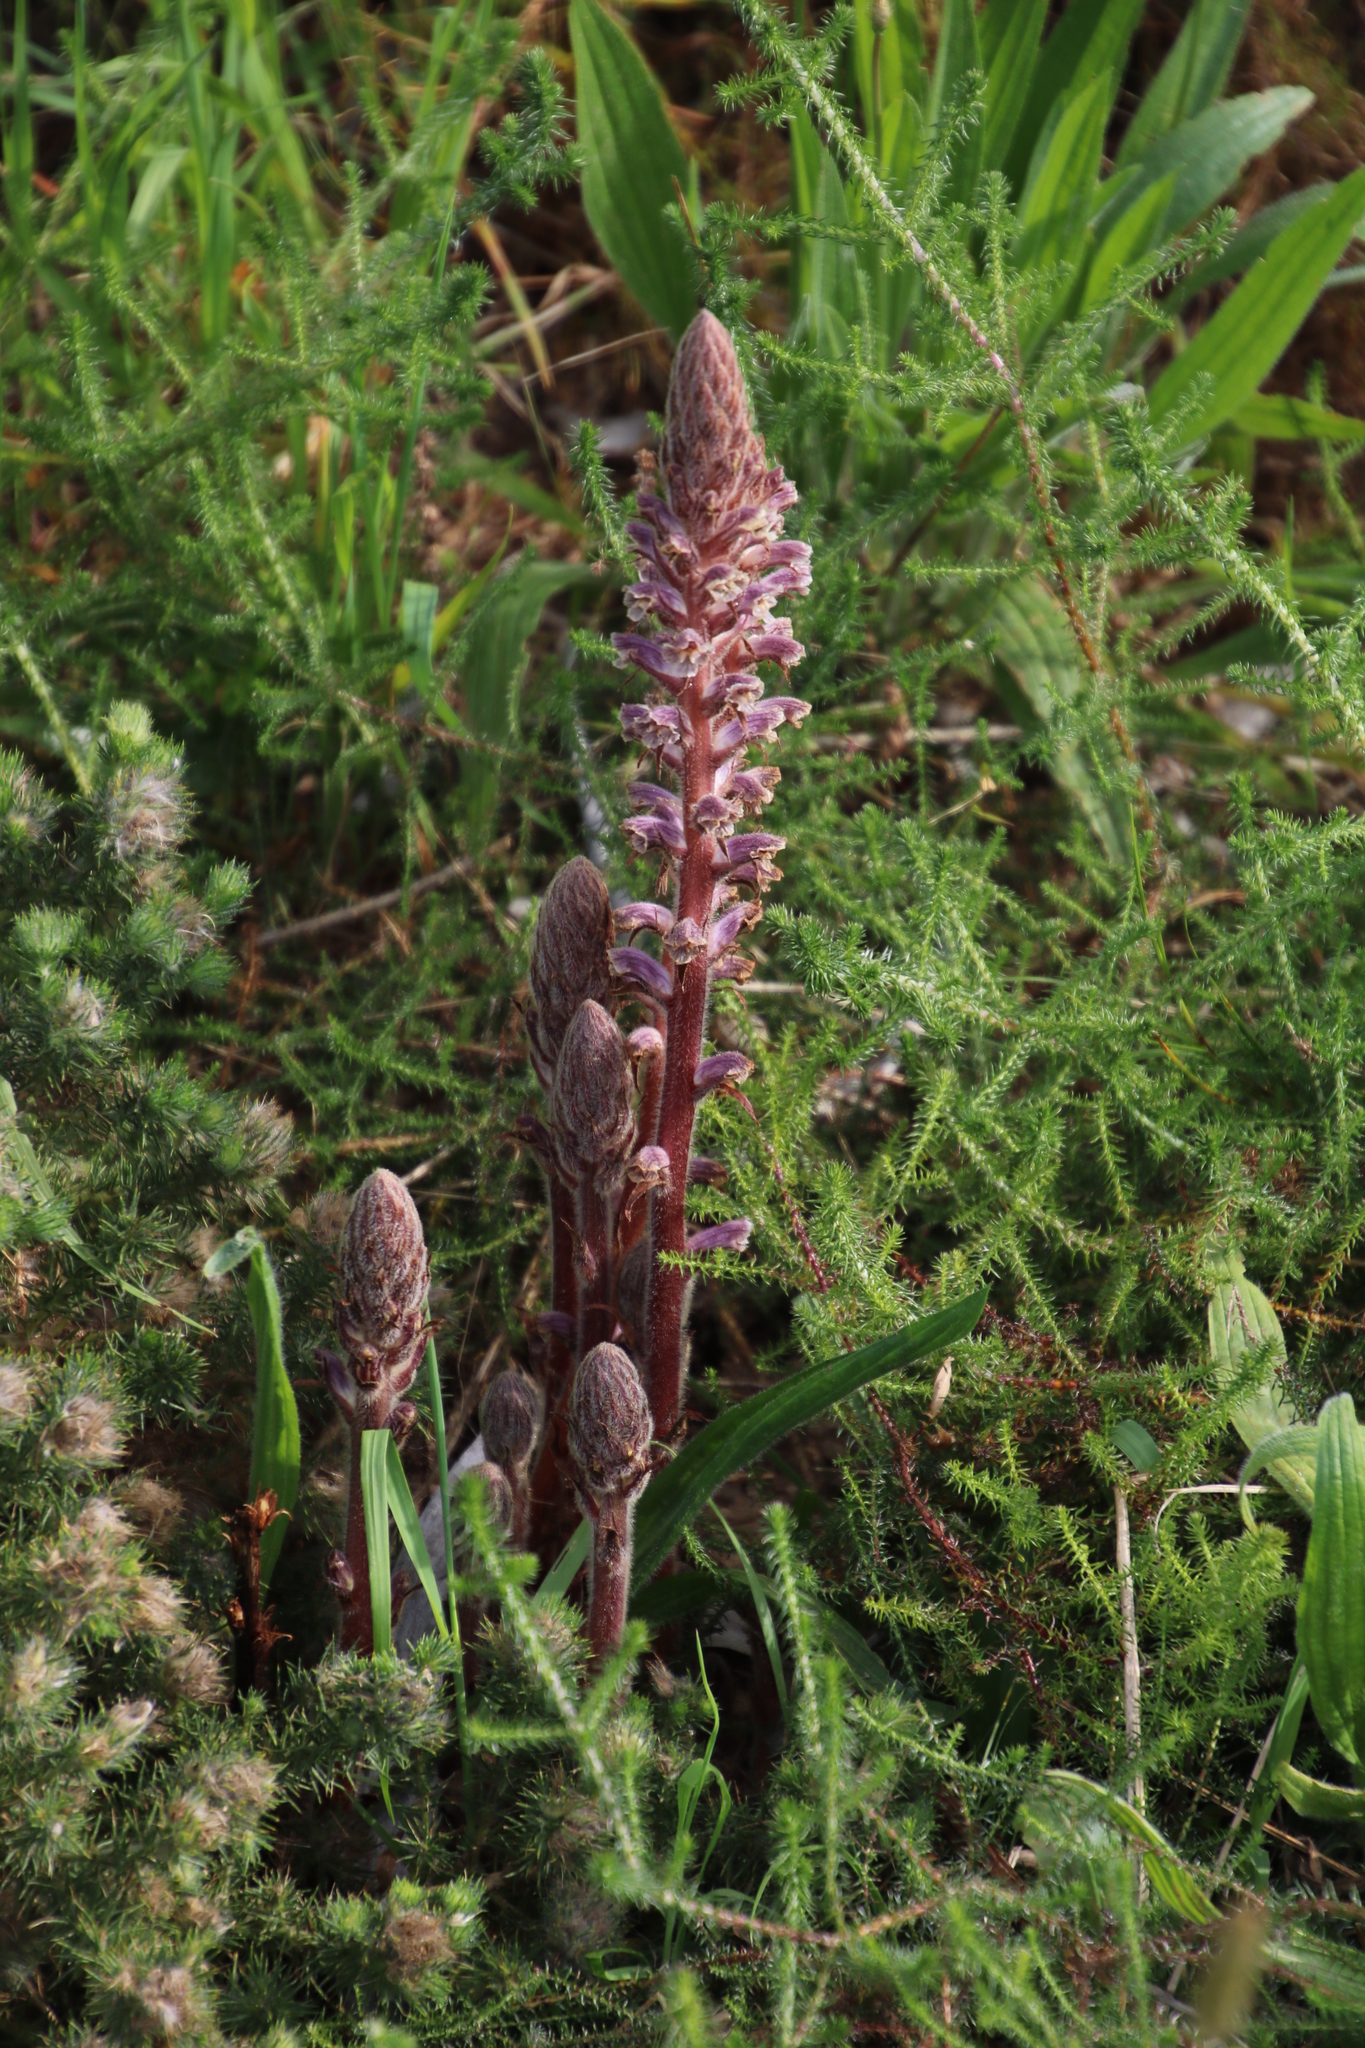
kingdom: Plantae
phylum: Tracheophyta
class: Magnoliopsida
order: Lamiales
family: Orobanchaceae
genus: Orobanche
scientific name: Orobanche minor
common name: Common broomrape
